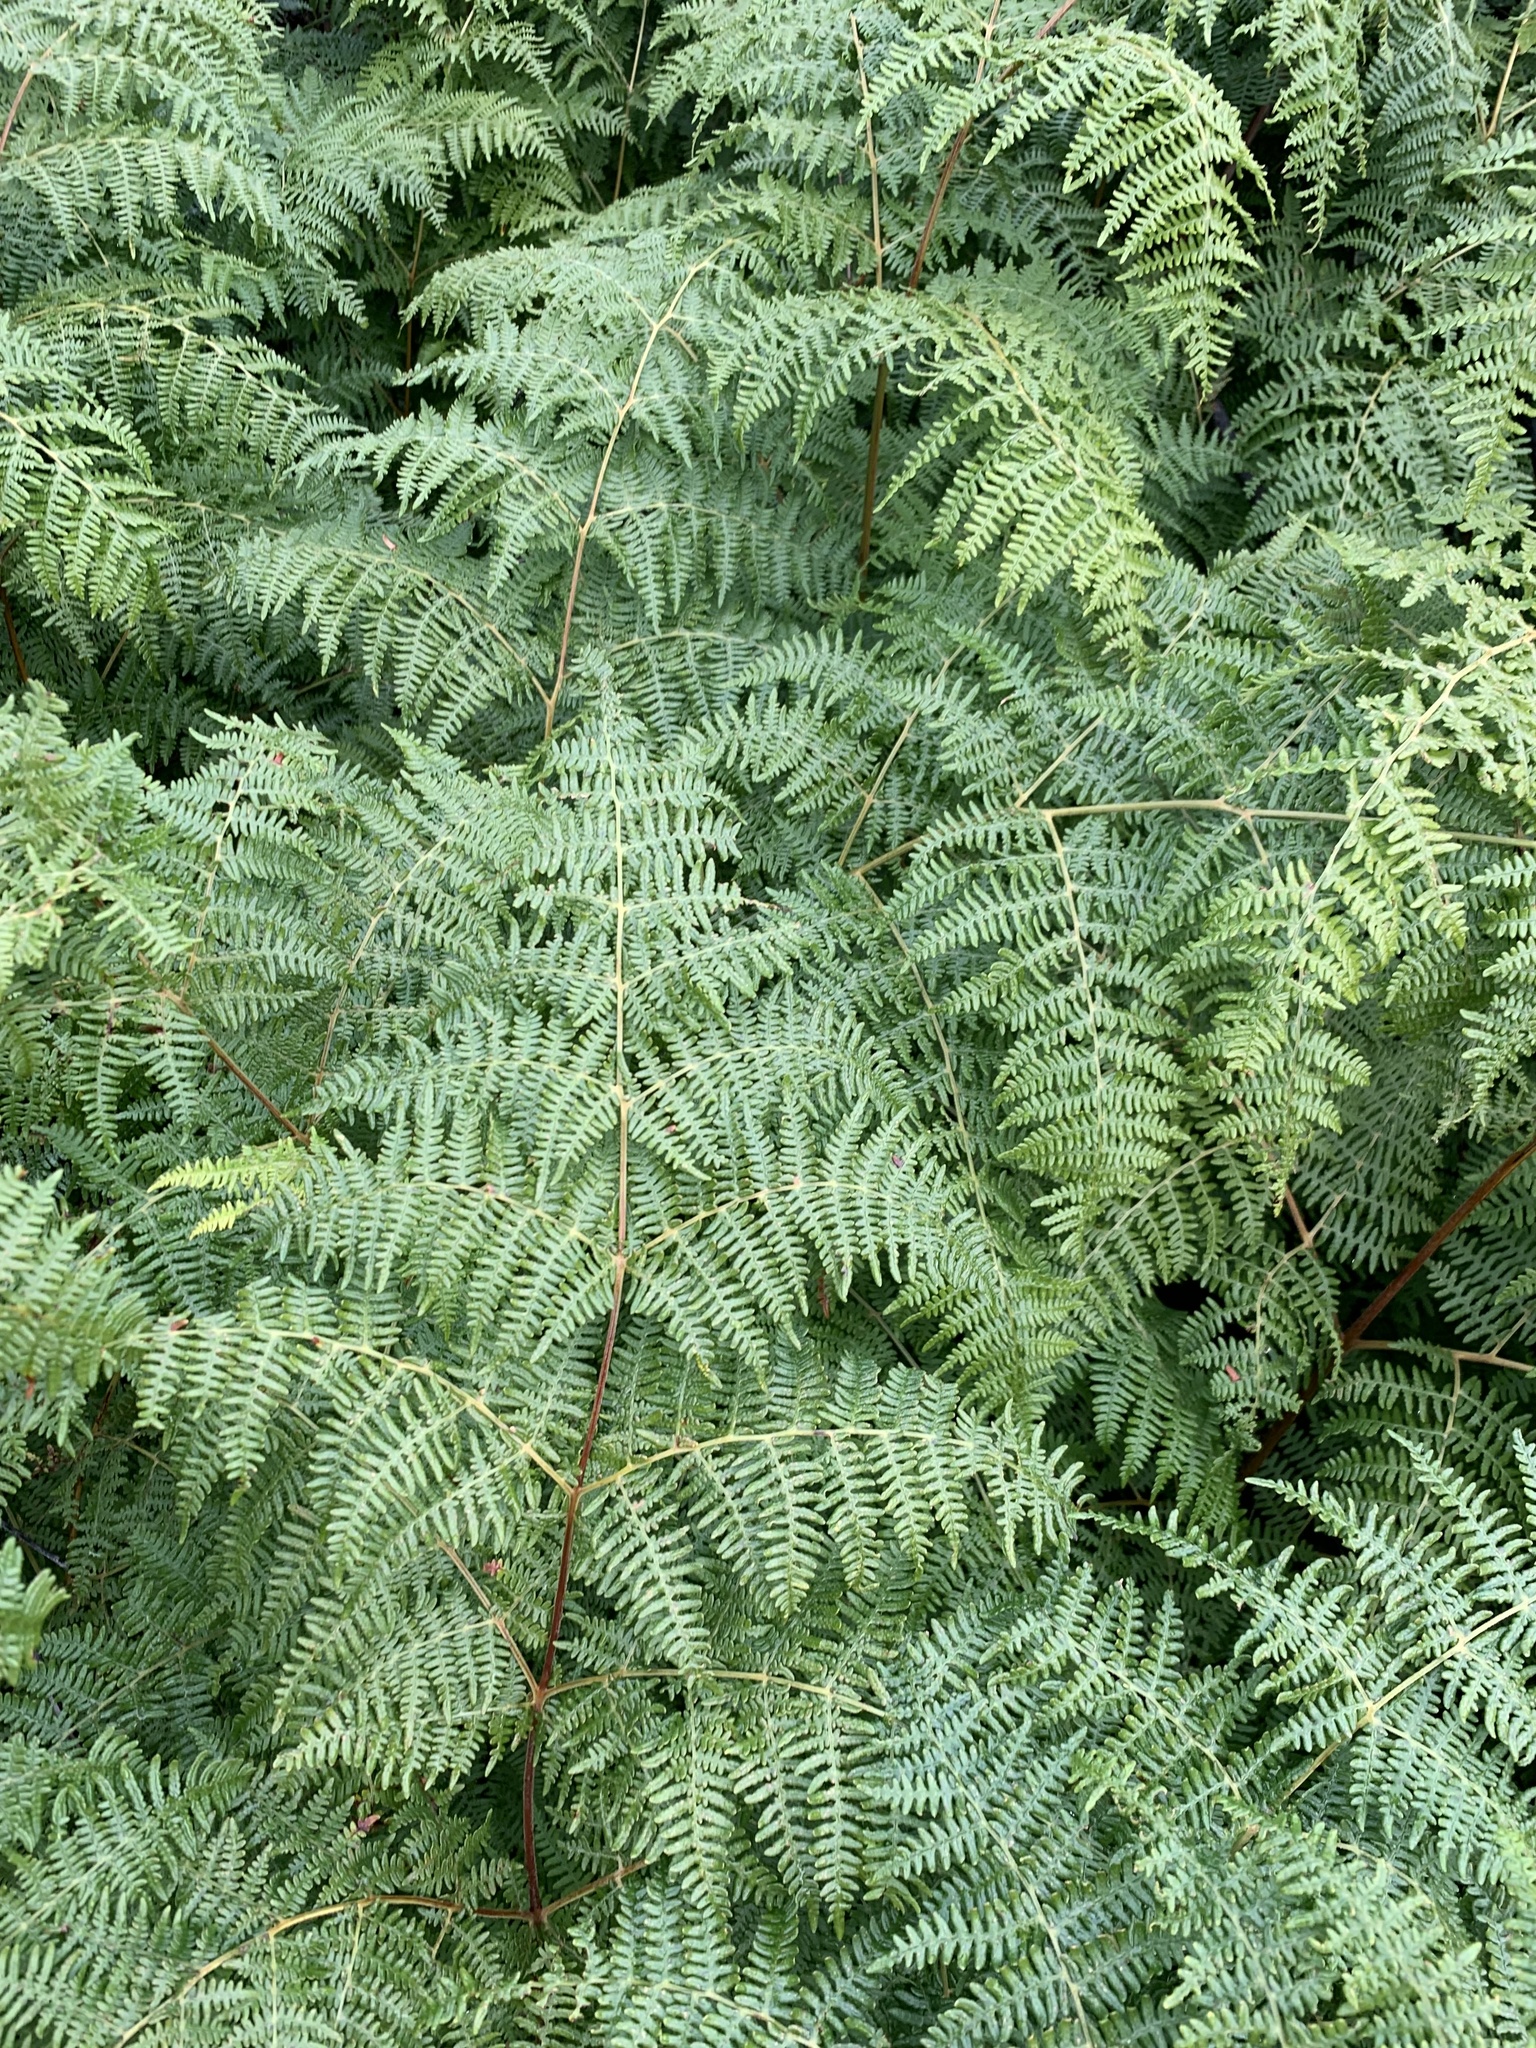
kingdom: Plantae
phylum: Tracheophyta
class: Polypodiopsida
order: Polypodiales
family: Dennstaedtiaceae
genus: Pteridium
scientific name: Pteridium aquilinum
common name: Bracken
